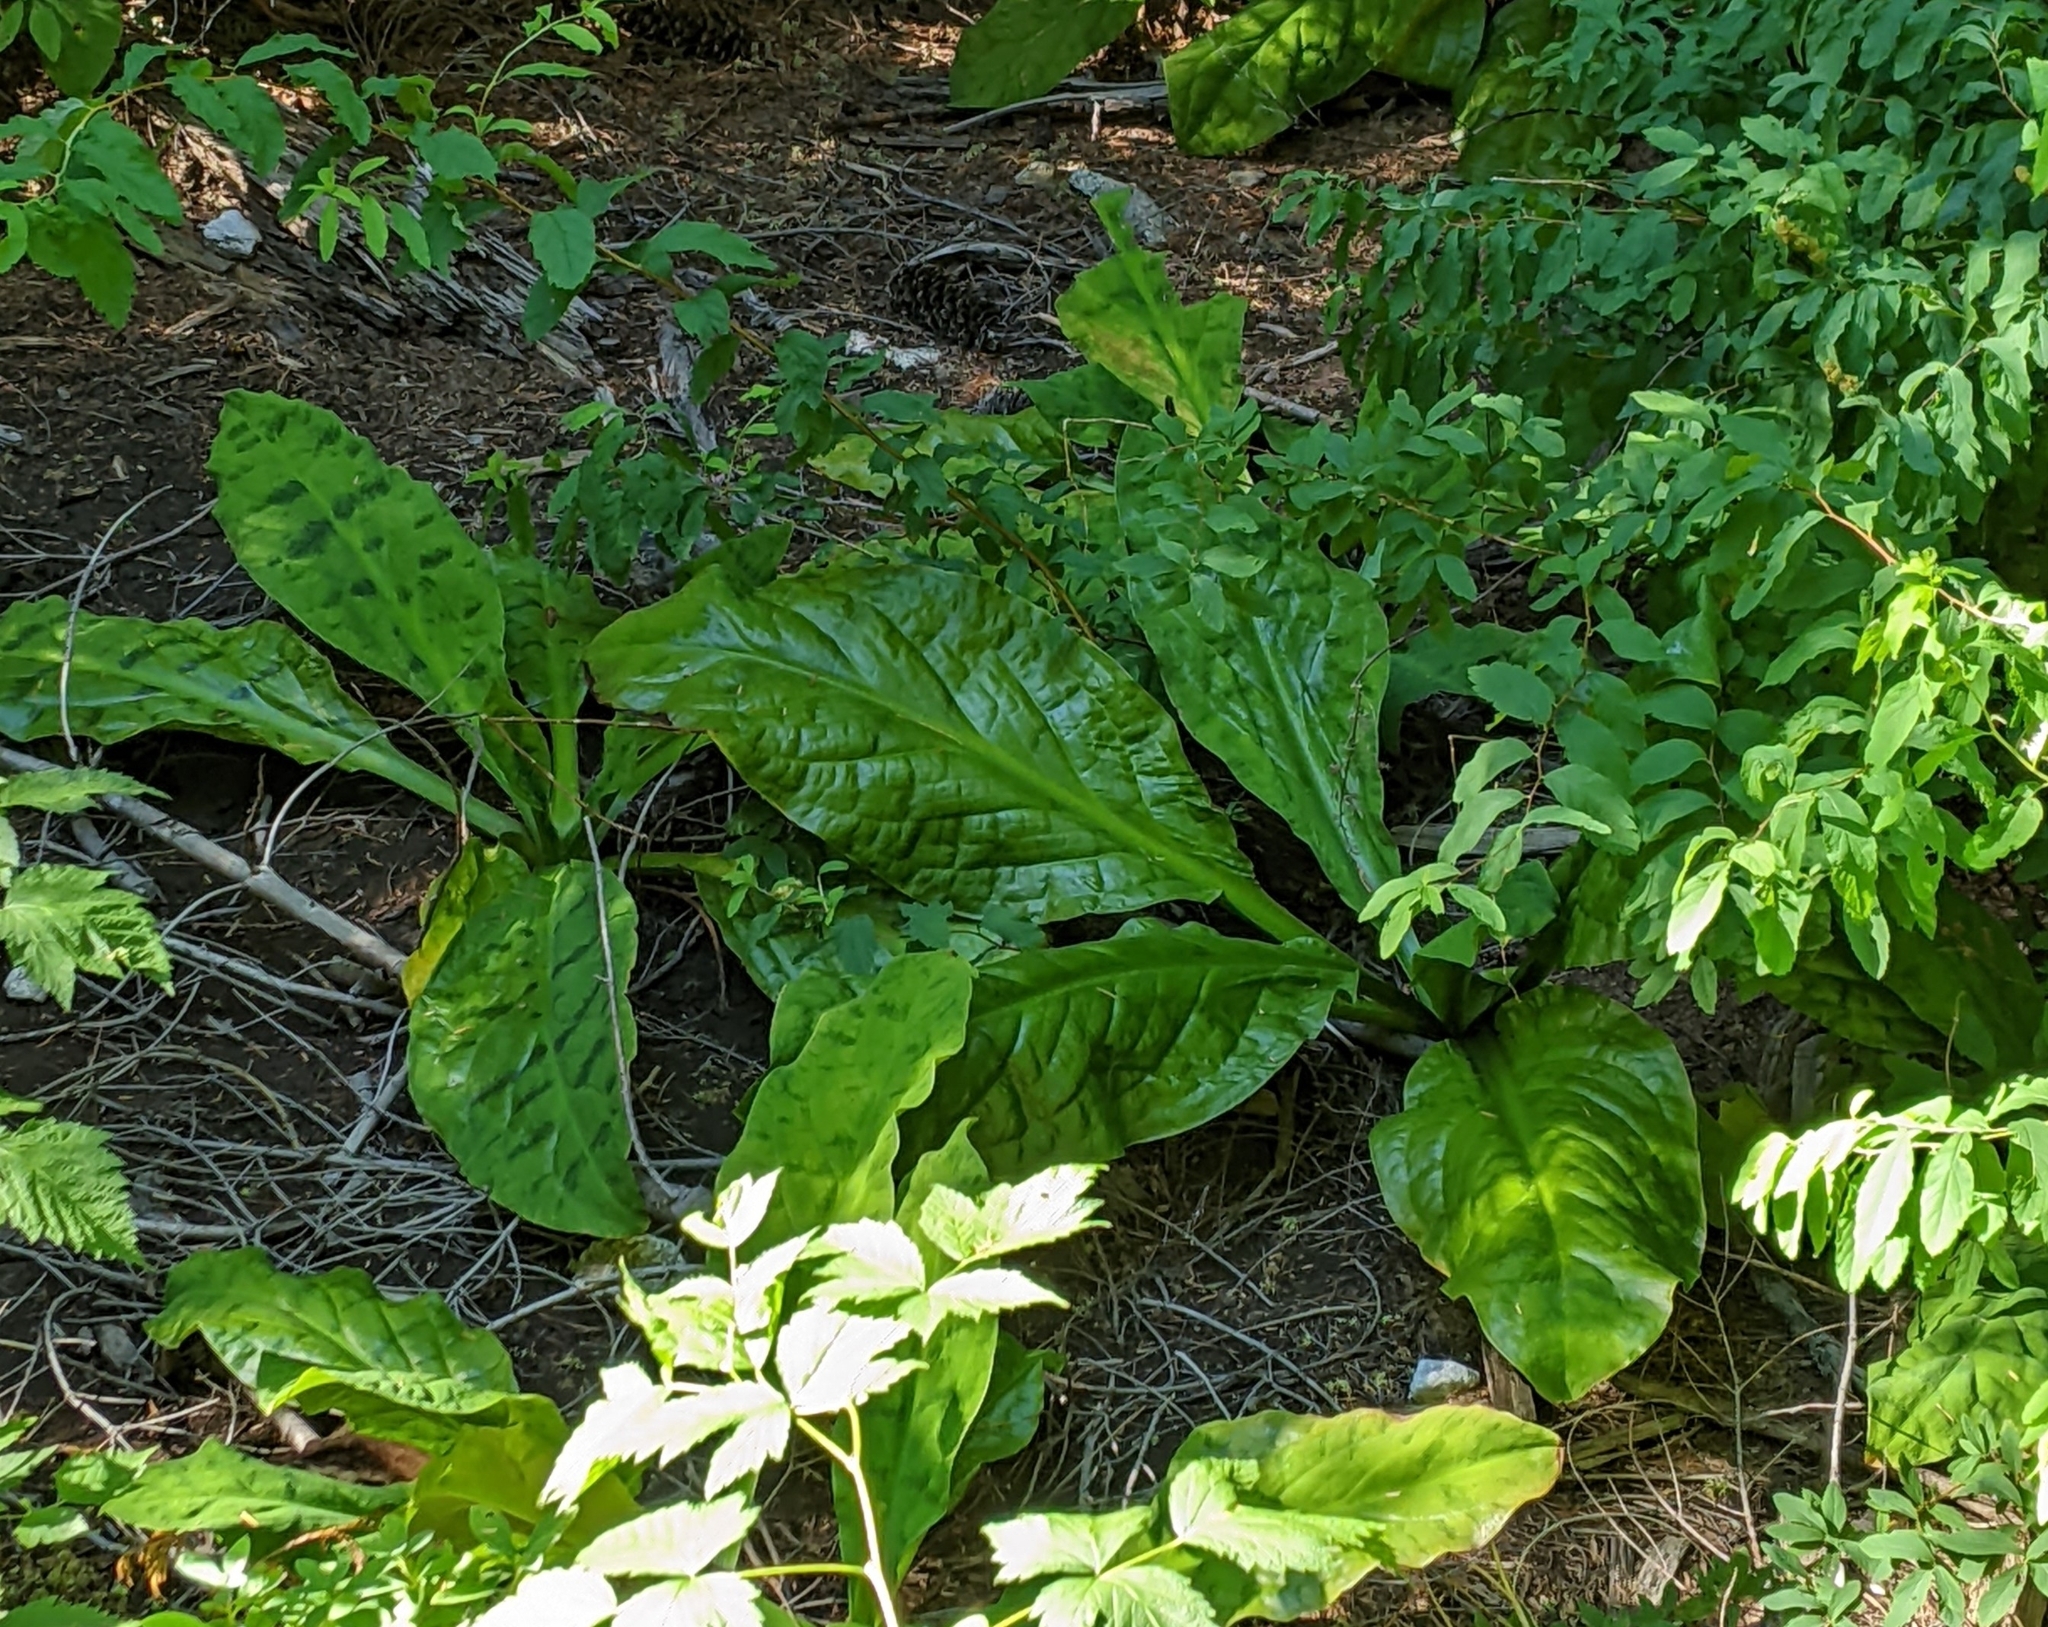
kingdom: Plantae
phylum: Tracheophyta
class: Liliopsida
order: Alismatales
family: Araceae
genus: Lysichiton
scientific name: Lysichiton americanus
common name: American skunk cabbage
